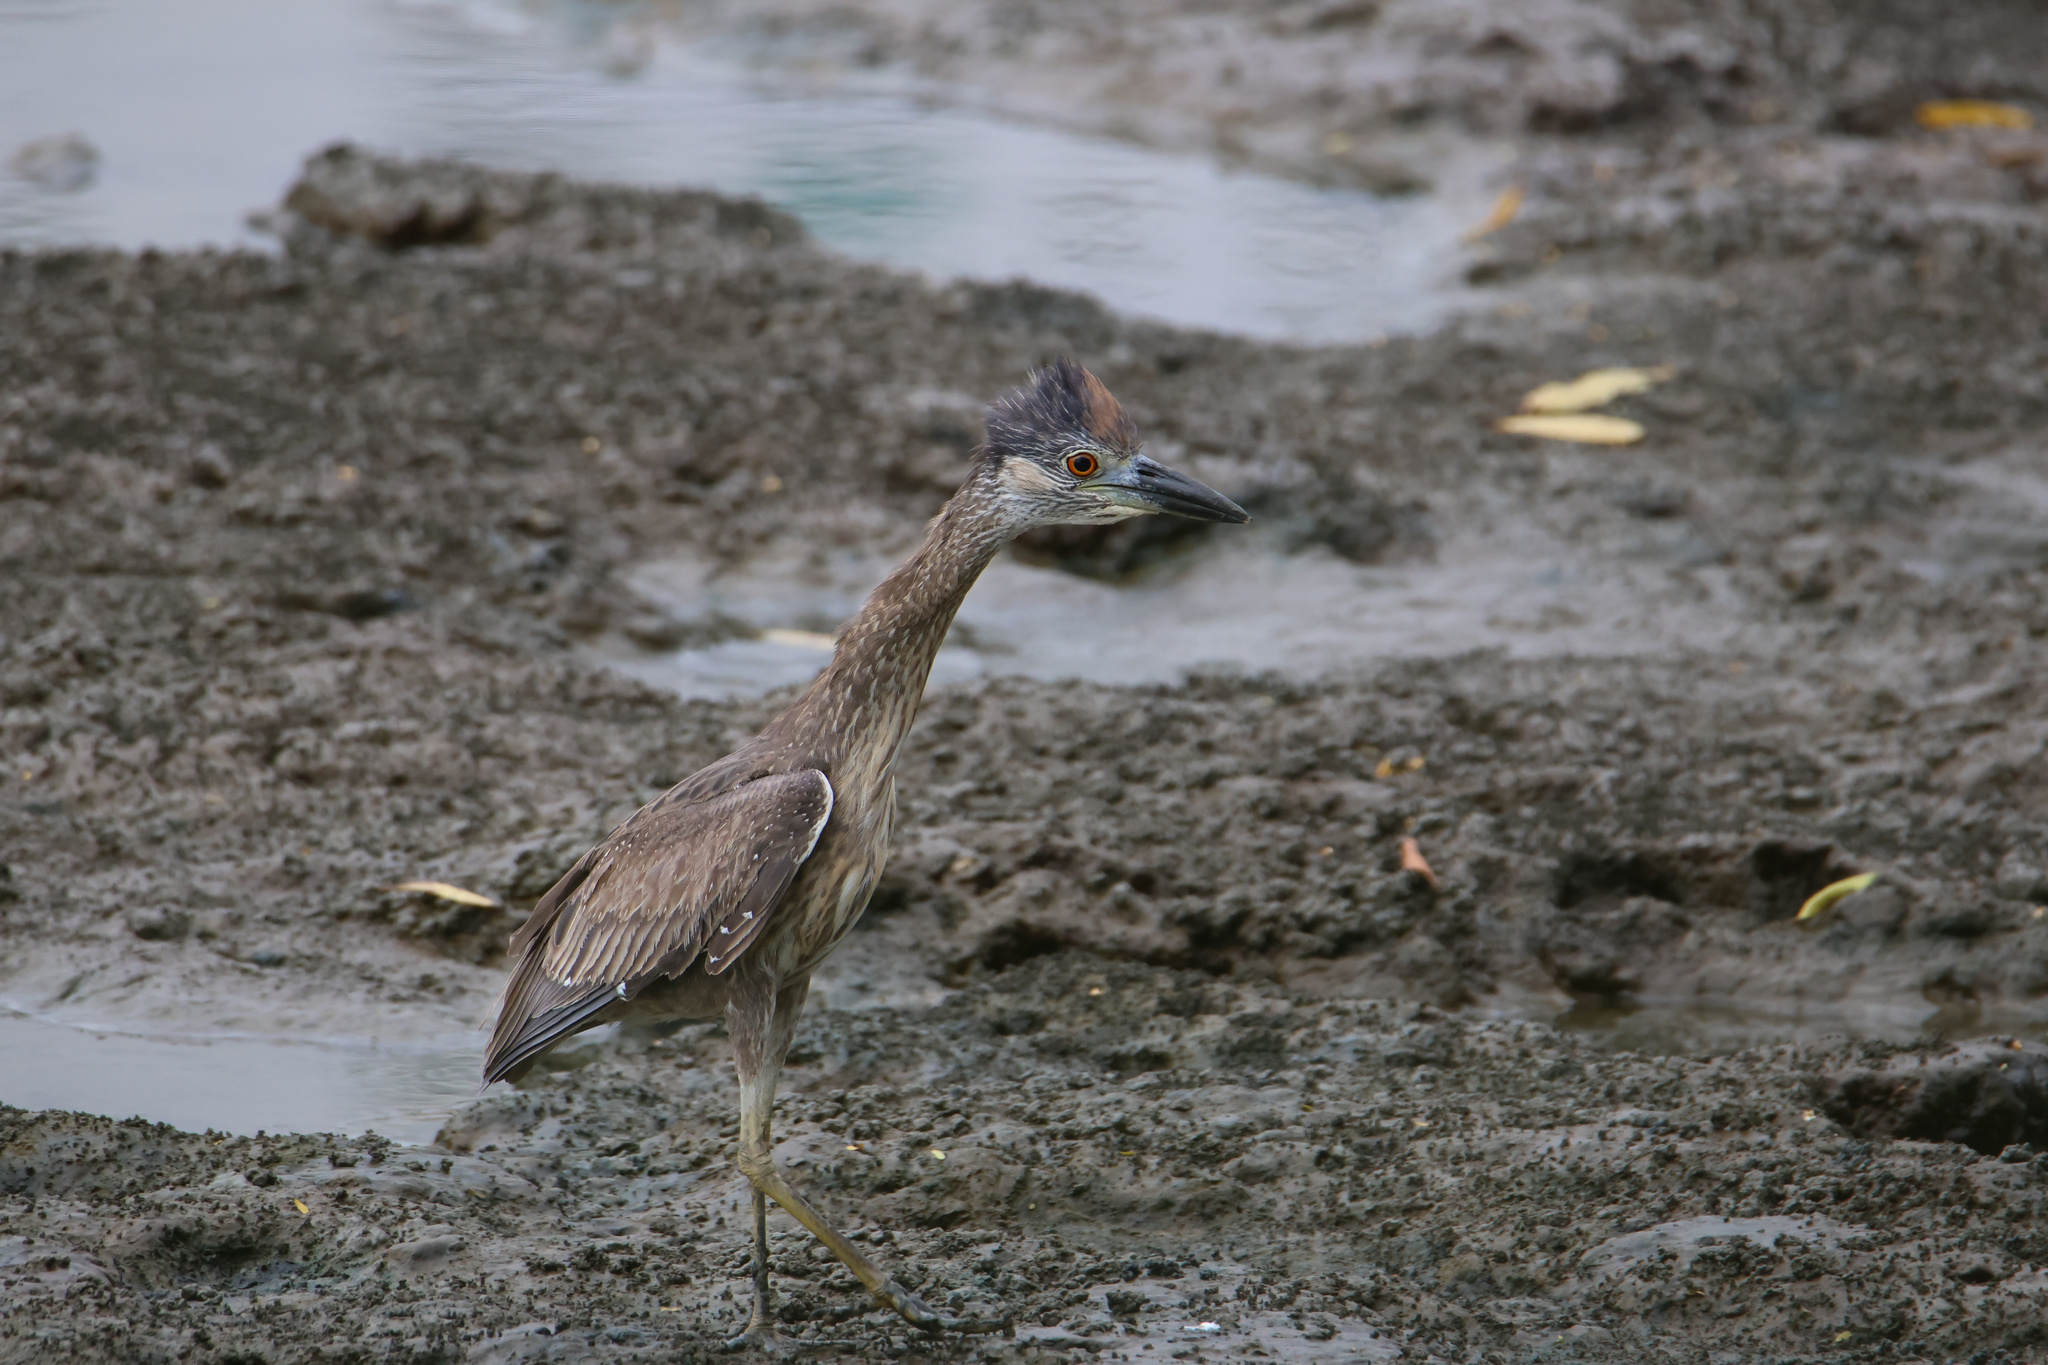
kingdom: Animalia
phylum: Chordata
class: Aves
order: Pelecaniformes
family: Ardeidae
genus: Nyctanassa
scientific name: Nyctanassa violacea
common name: Yellow-crowned night heron
